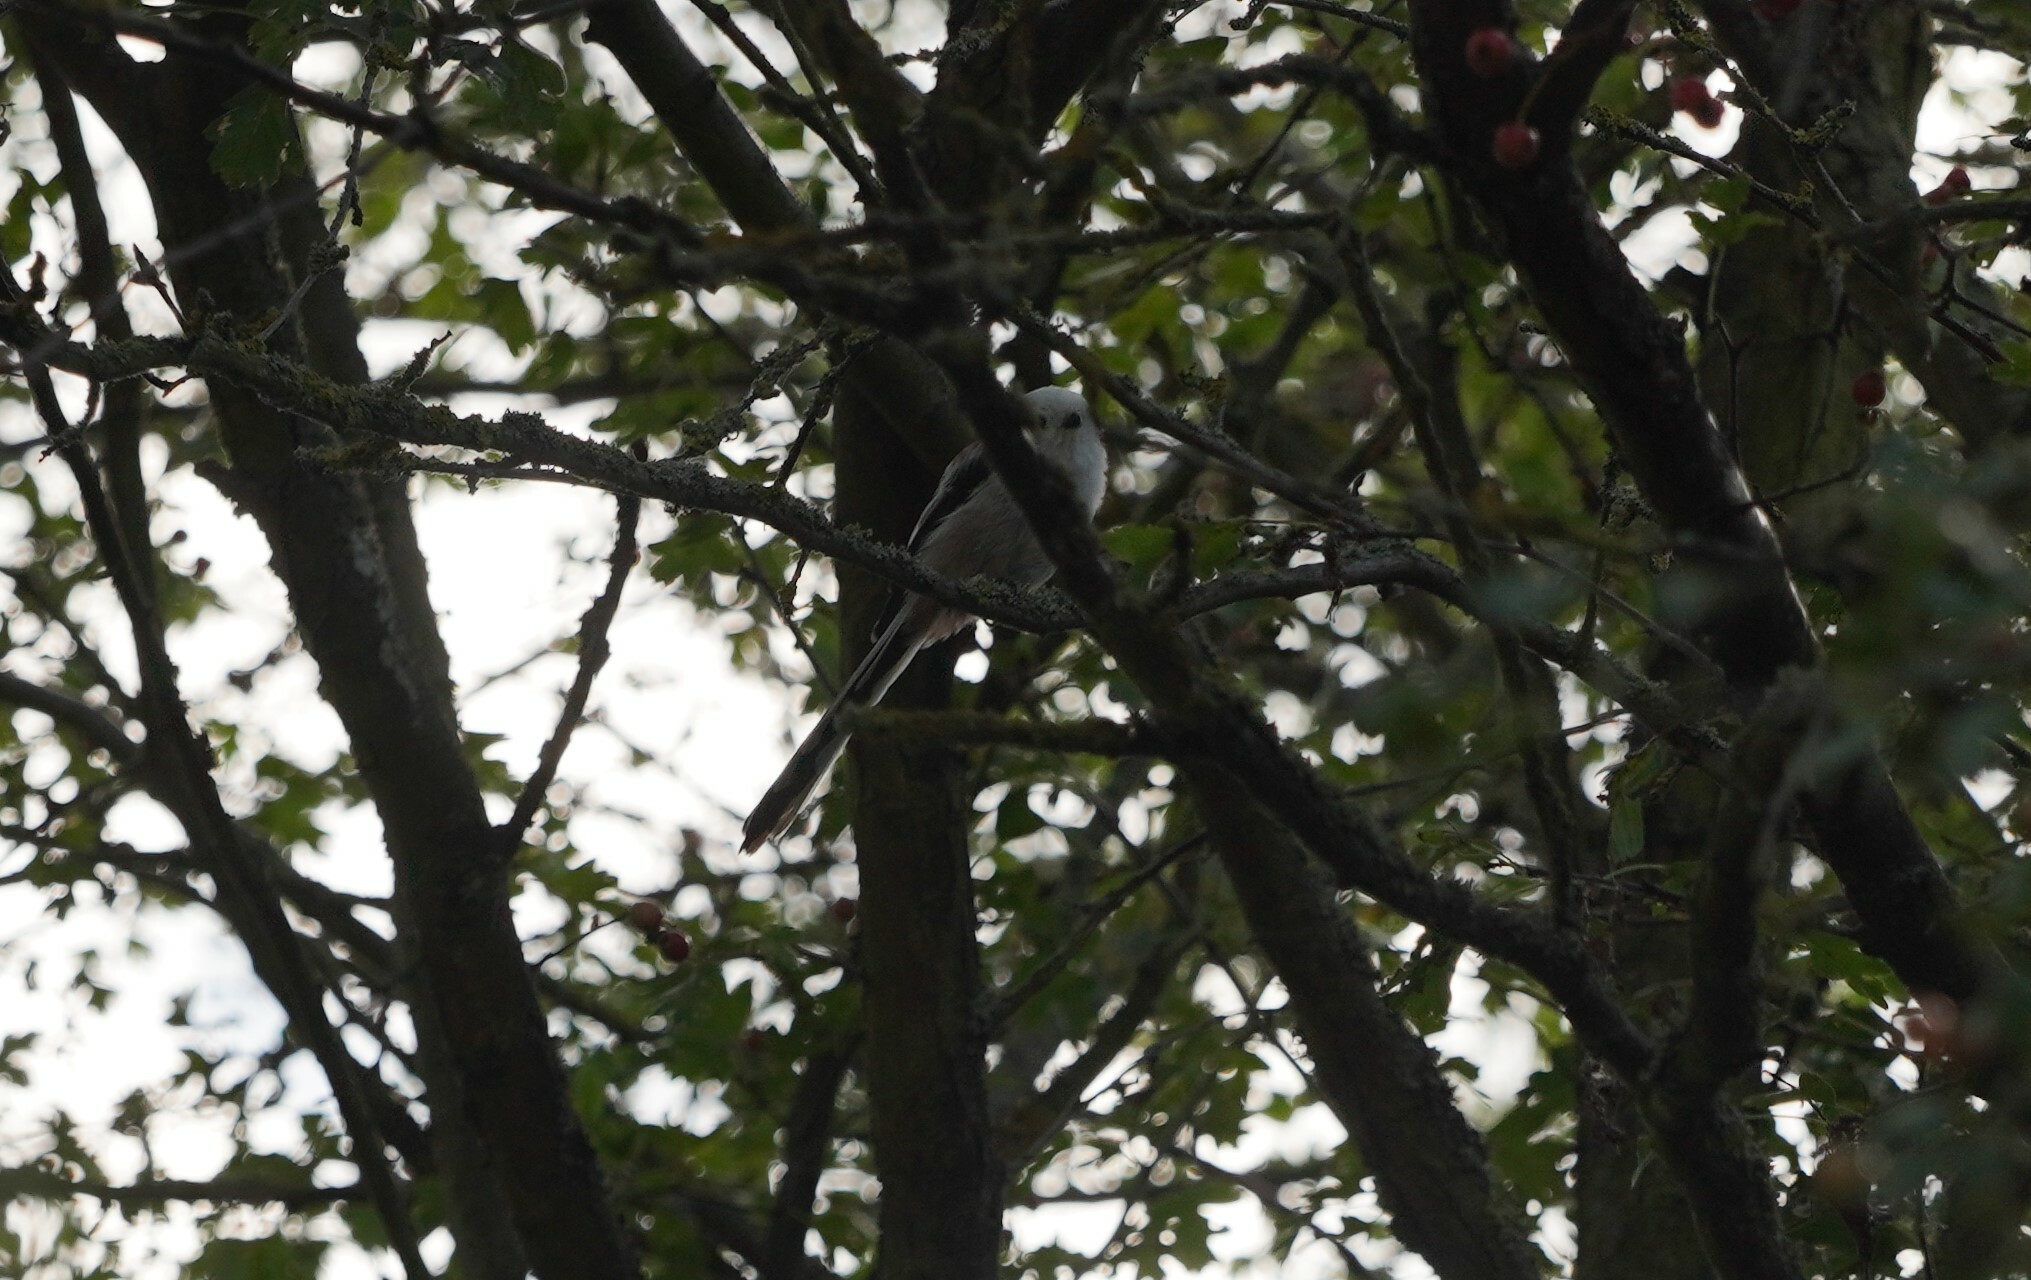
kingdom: Animalia
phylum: Chordata
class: Aves
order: Passeriformes
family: Aegithalidae
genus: Aegithalos
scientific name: Aegithalos caudatus
